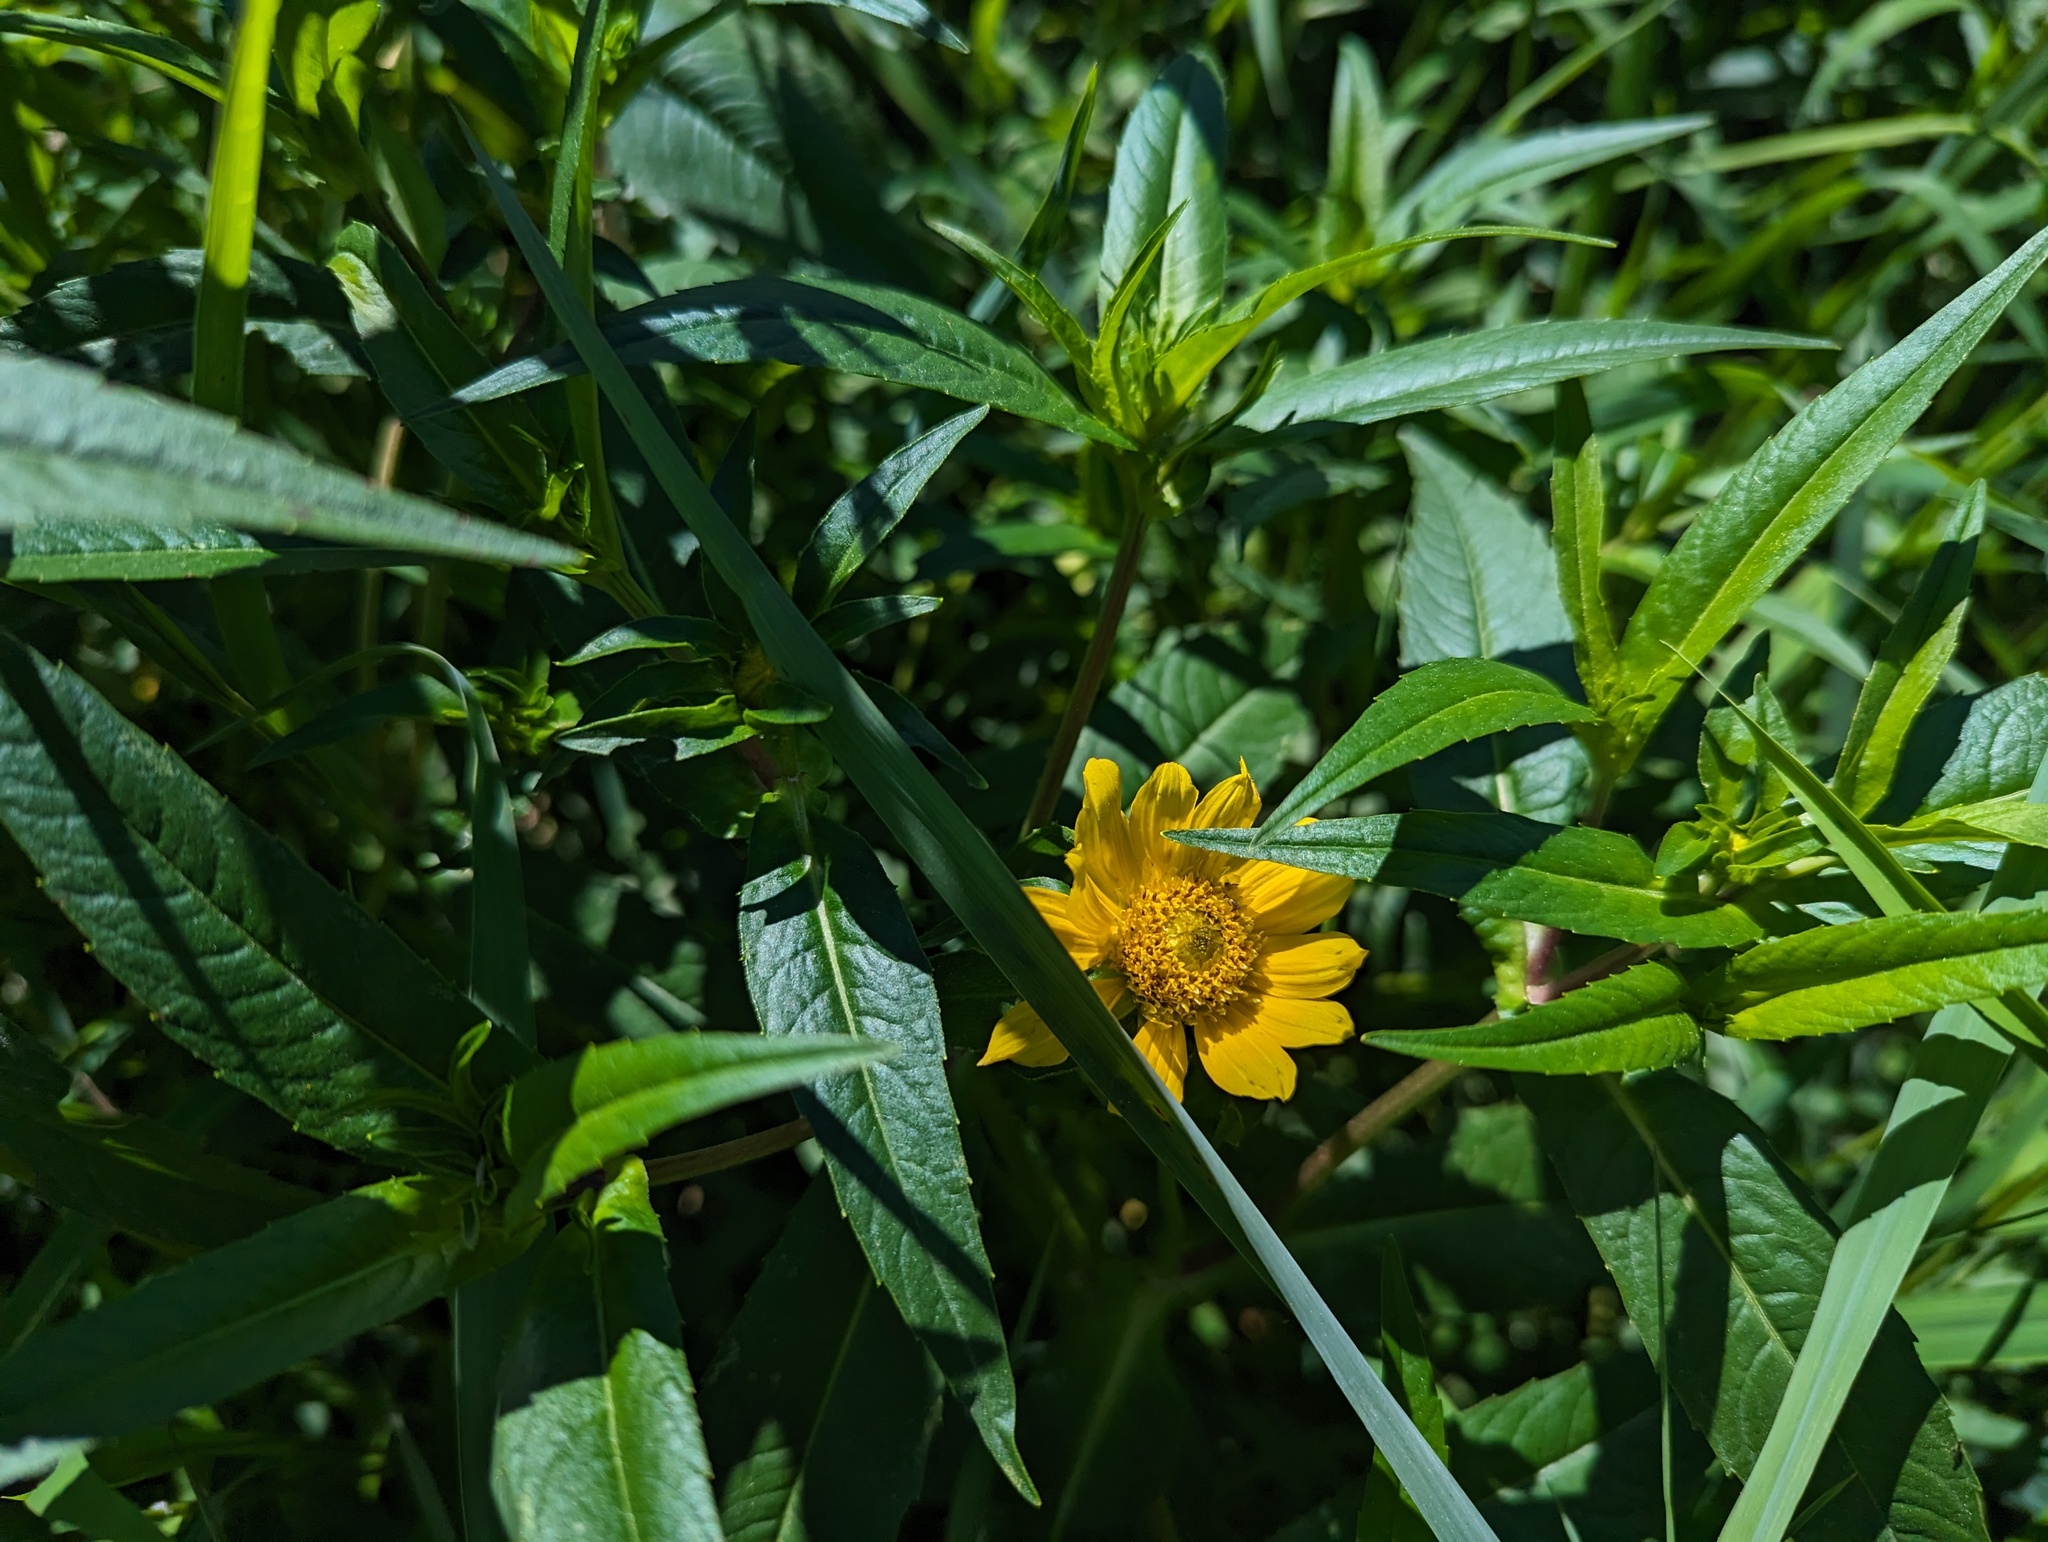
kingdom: Plantae
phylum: Tracheophyta
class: Magnoliopsida
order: Asterales
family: Asteraceae
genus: Bidens
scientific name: Bidens cernua
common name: Nodding bur-marigold
